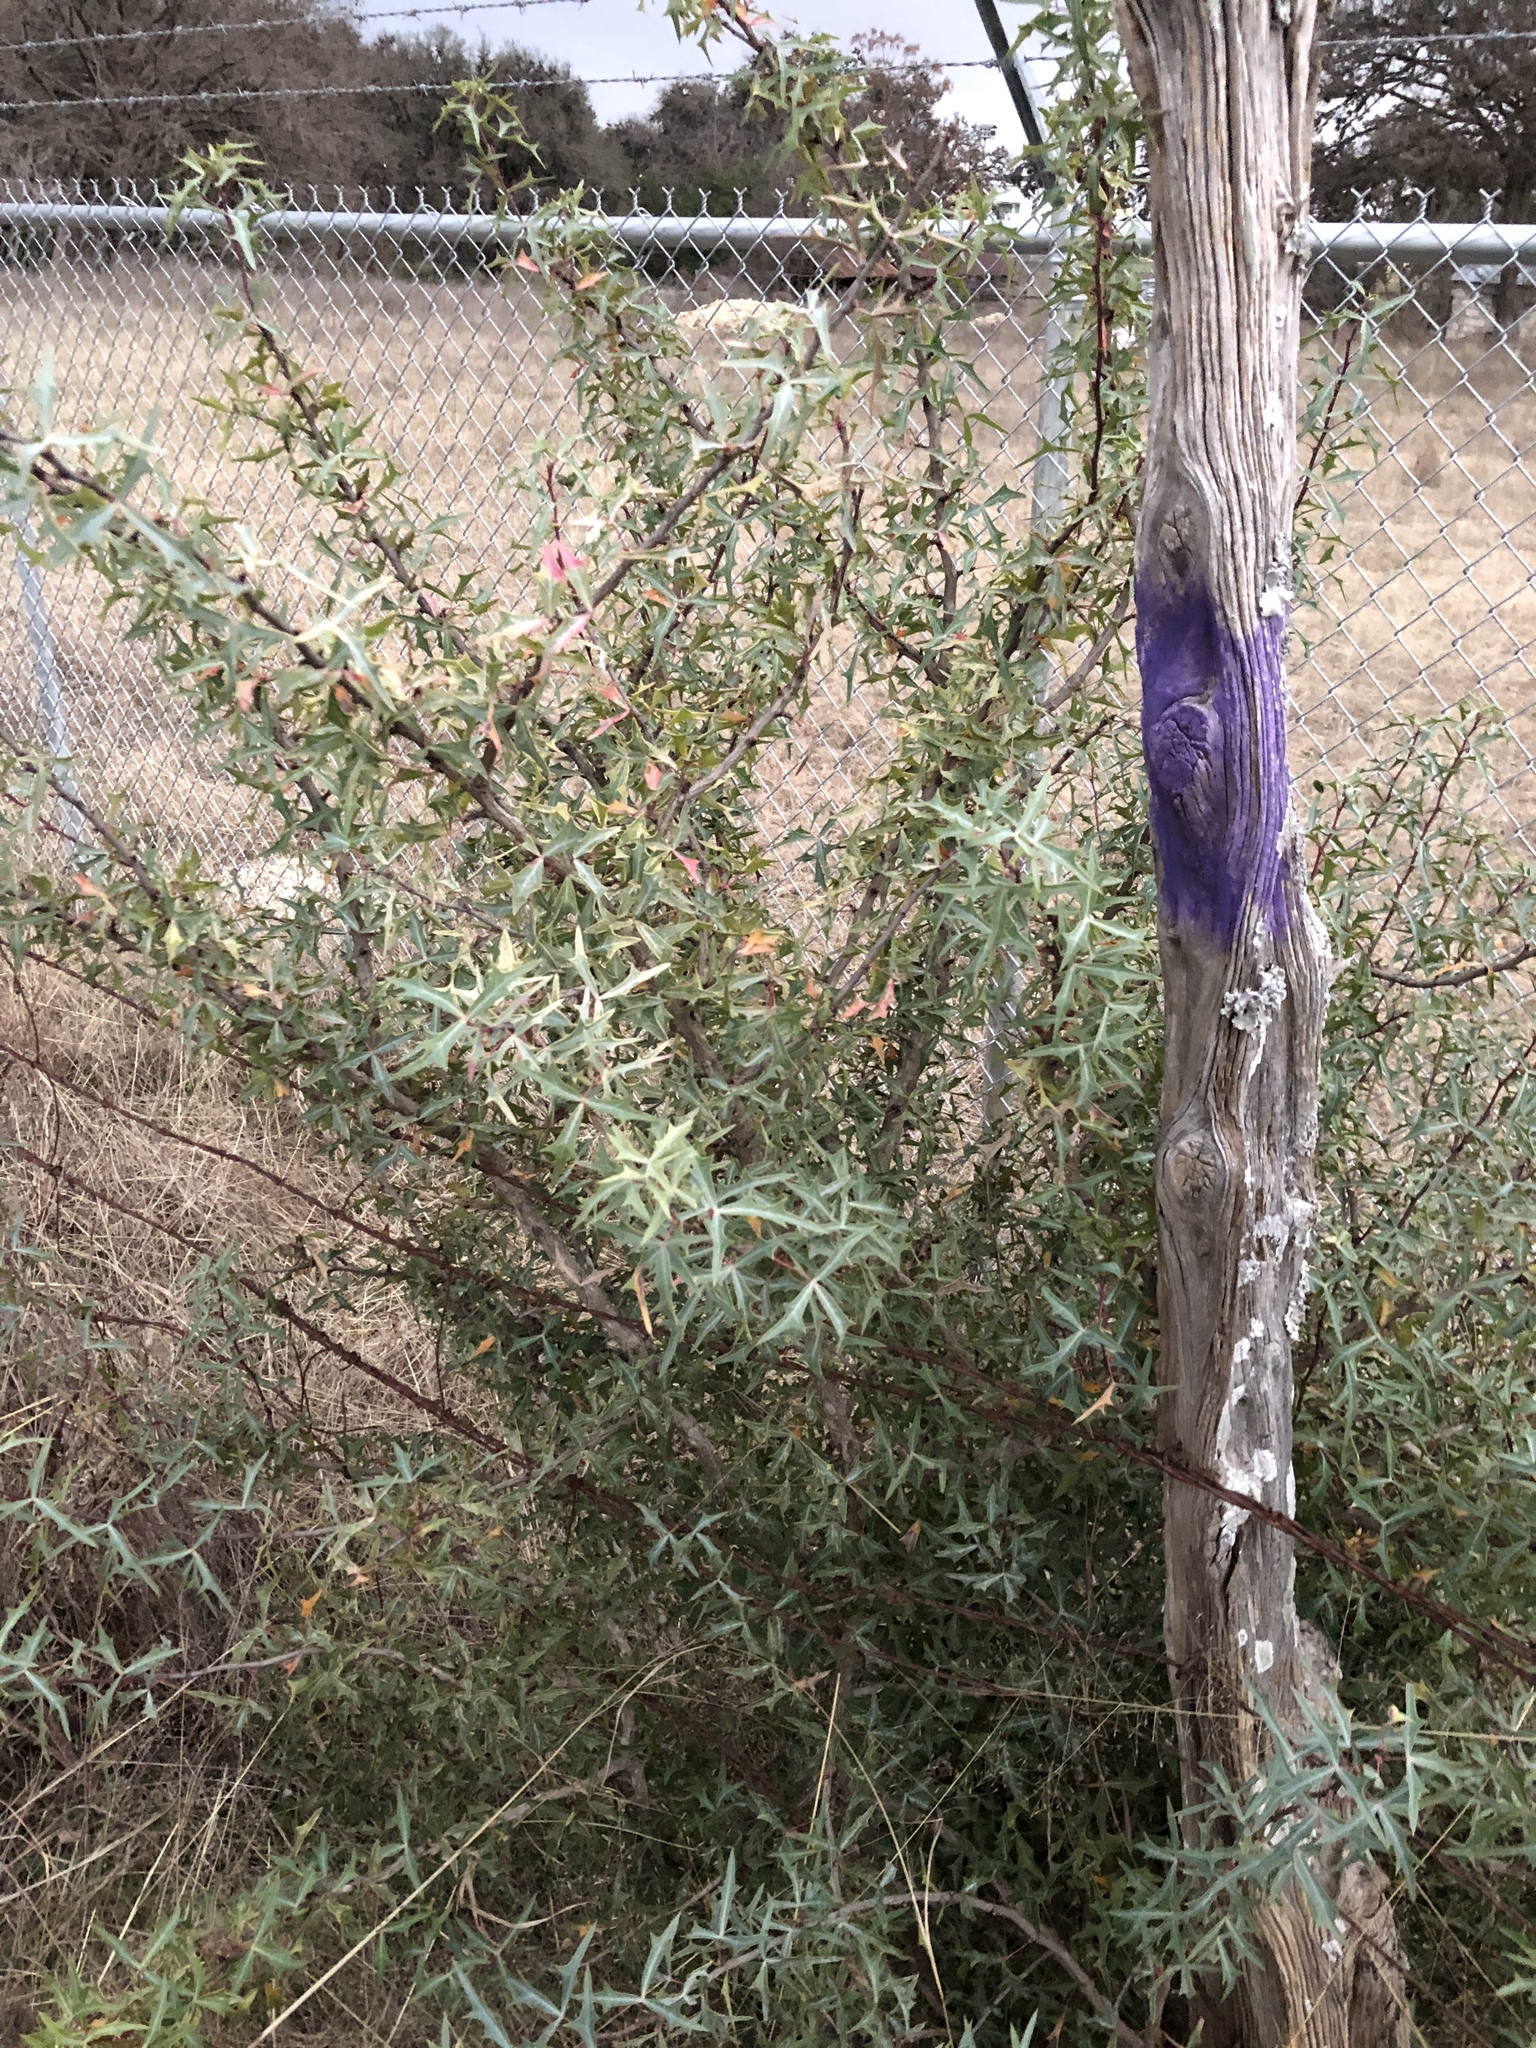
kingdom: Plantae
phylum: Tracheophyta
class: Magnoliopsida
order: Ranunculales
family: Berberidaceae
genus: Alloberberis
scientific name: Alloberberis trifoliolata
